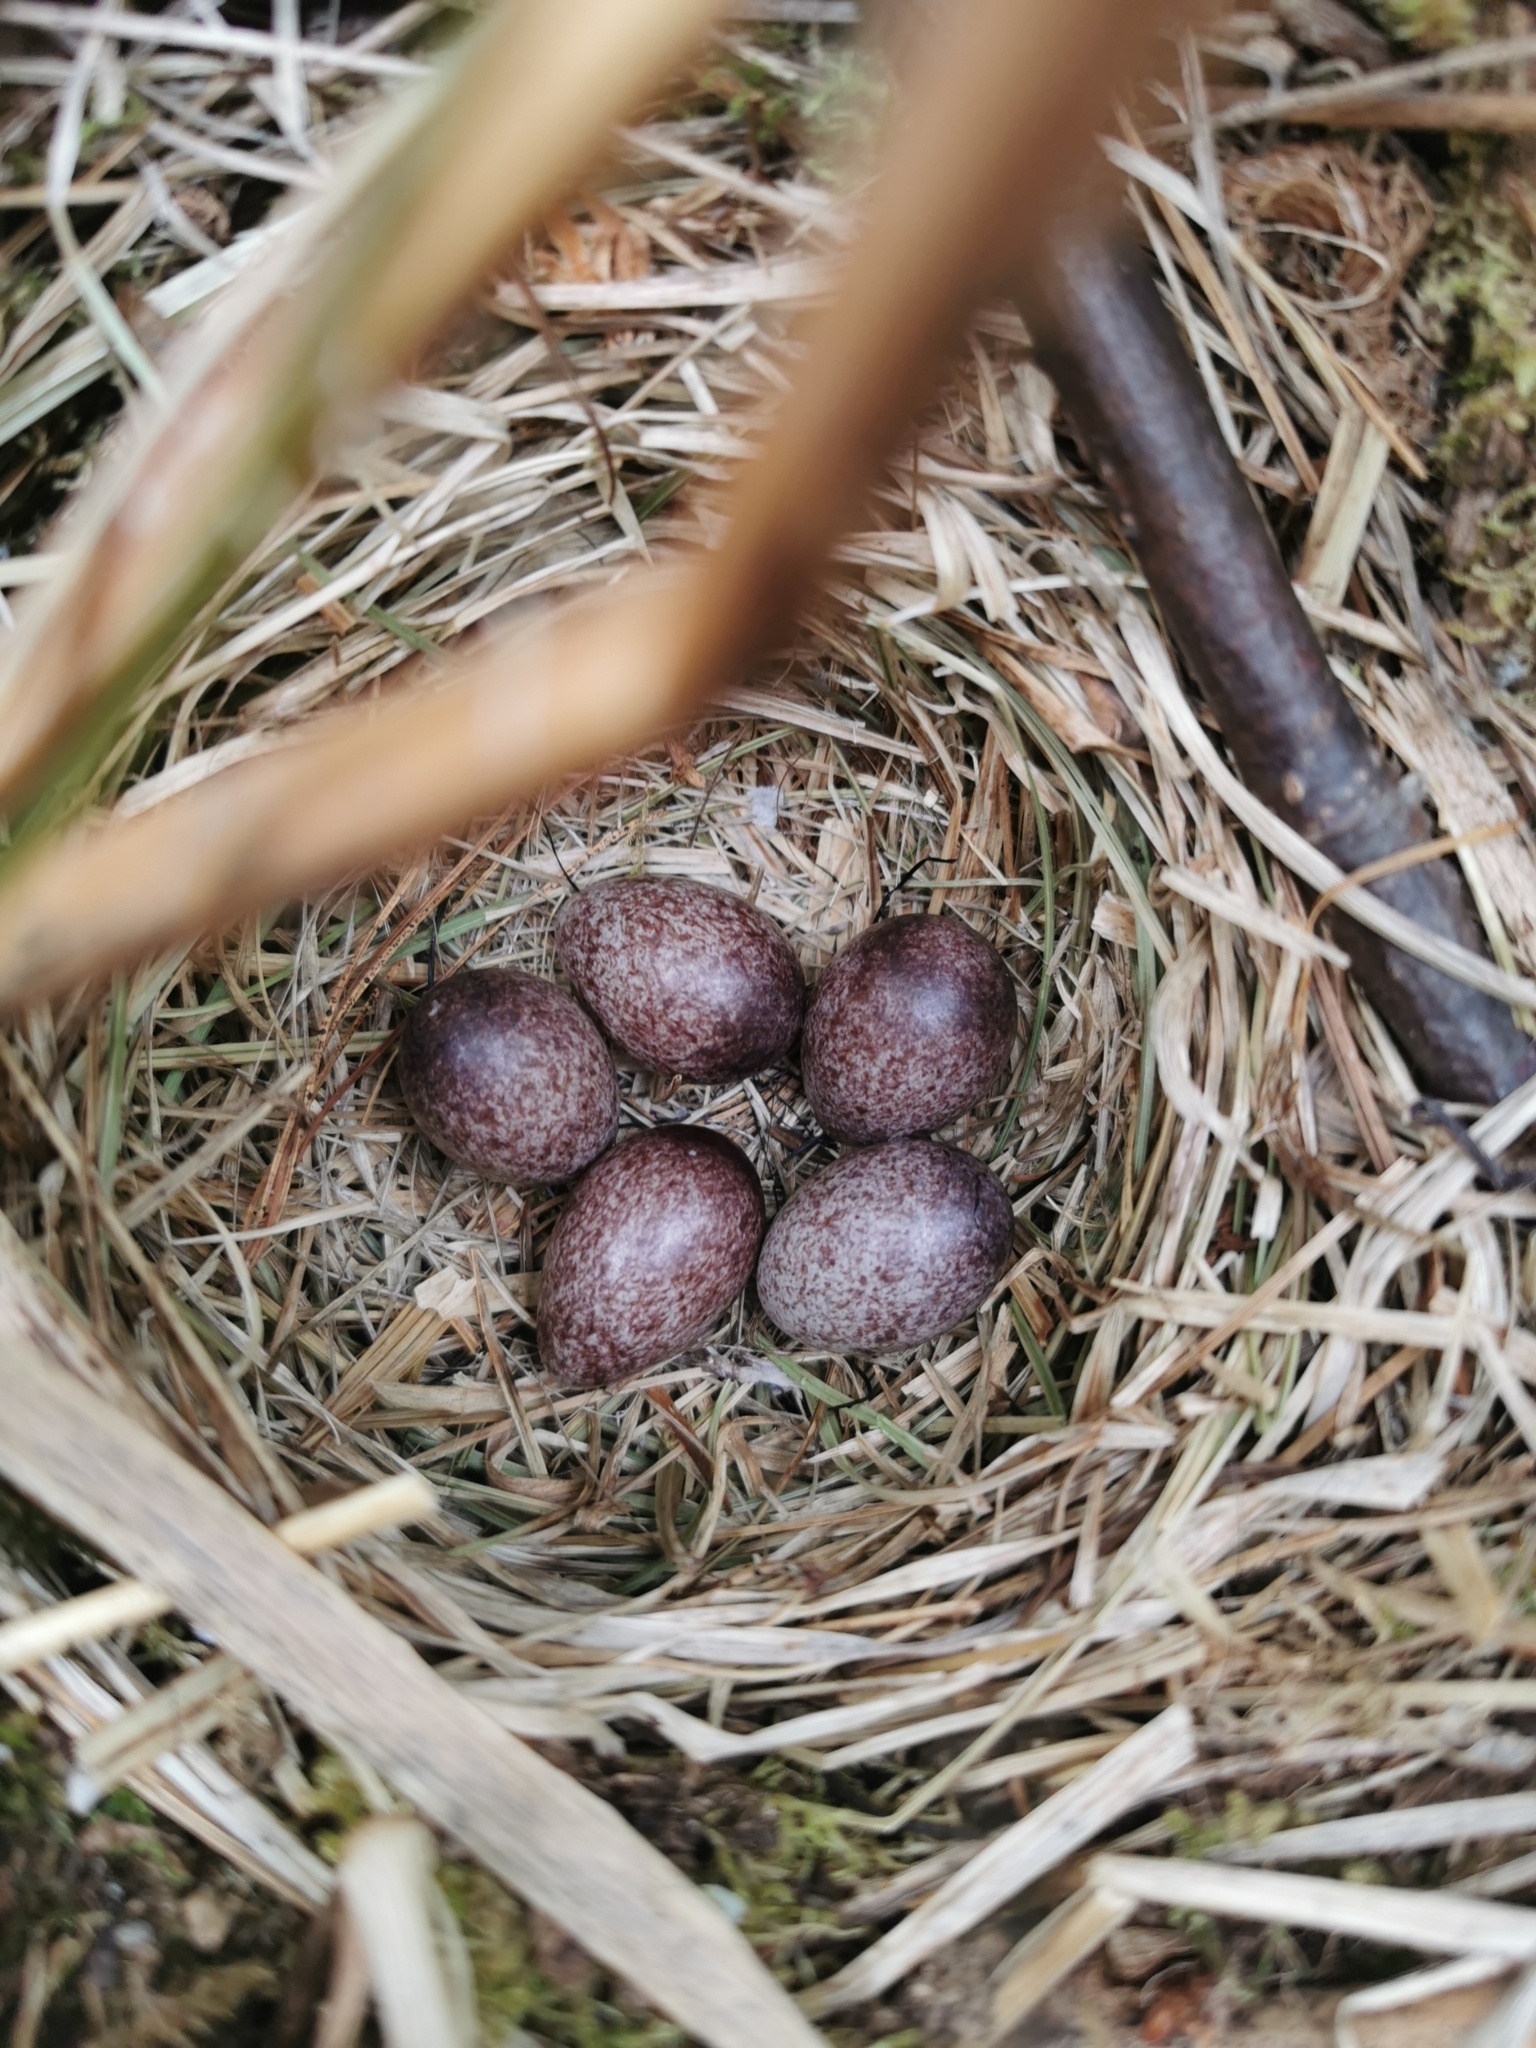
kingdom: Animalia
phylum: Chordata
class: Aves
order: Passeriformes
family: Motacillidae
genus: Anthus
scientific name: Anthus hodgsoni
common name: Olive-backed pipit
